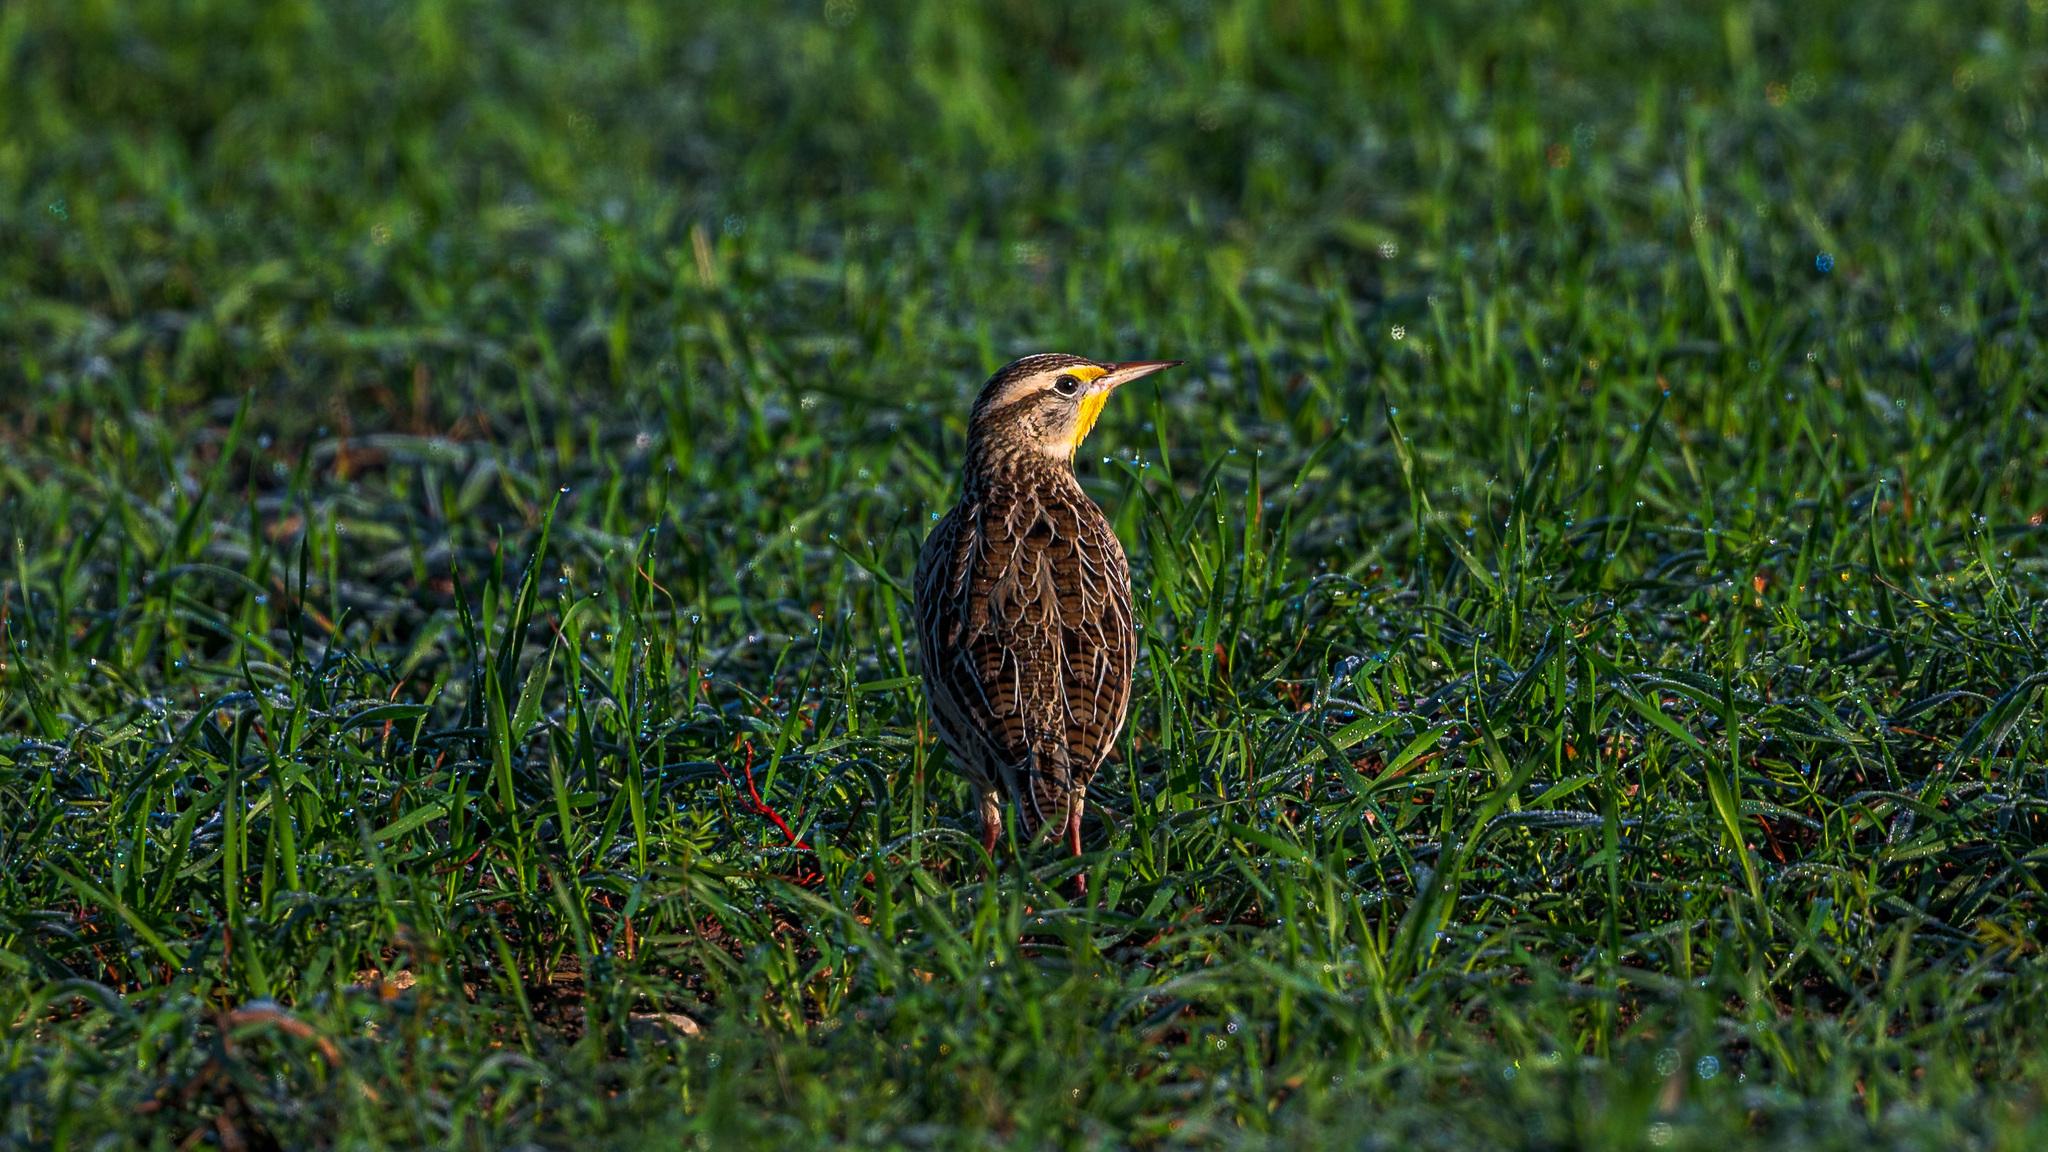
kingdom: Animalia
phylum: Chordata
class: Aves
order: Passeriformes
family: Icteridae
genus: Sturnella
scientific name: Sturnella neglecta
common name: Western meadowlark
